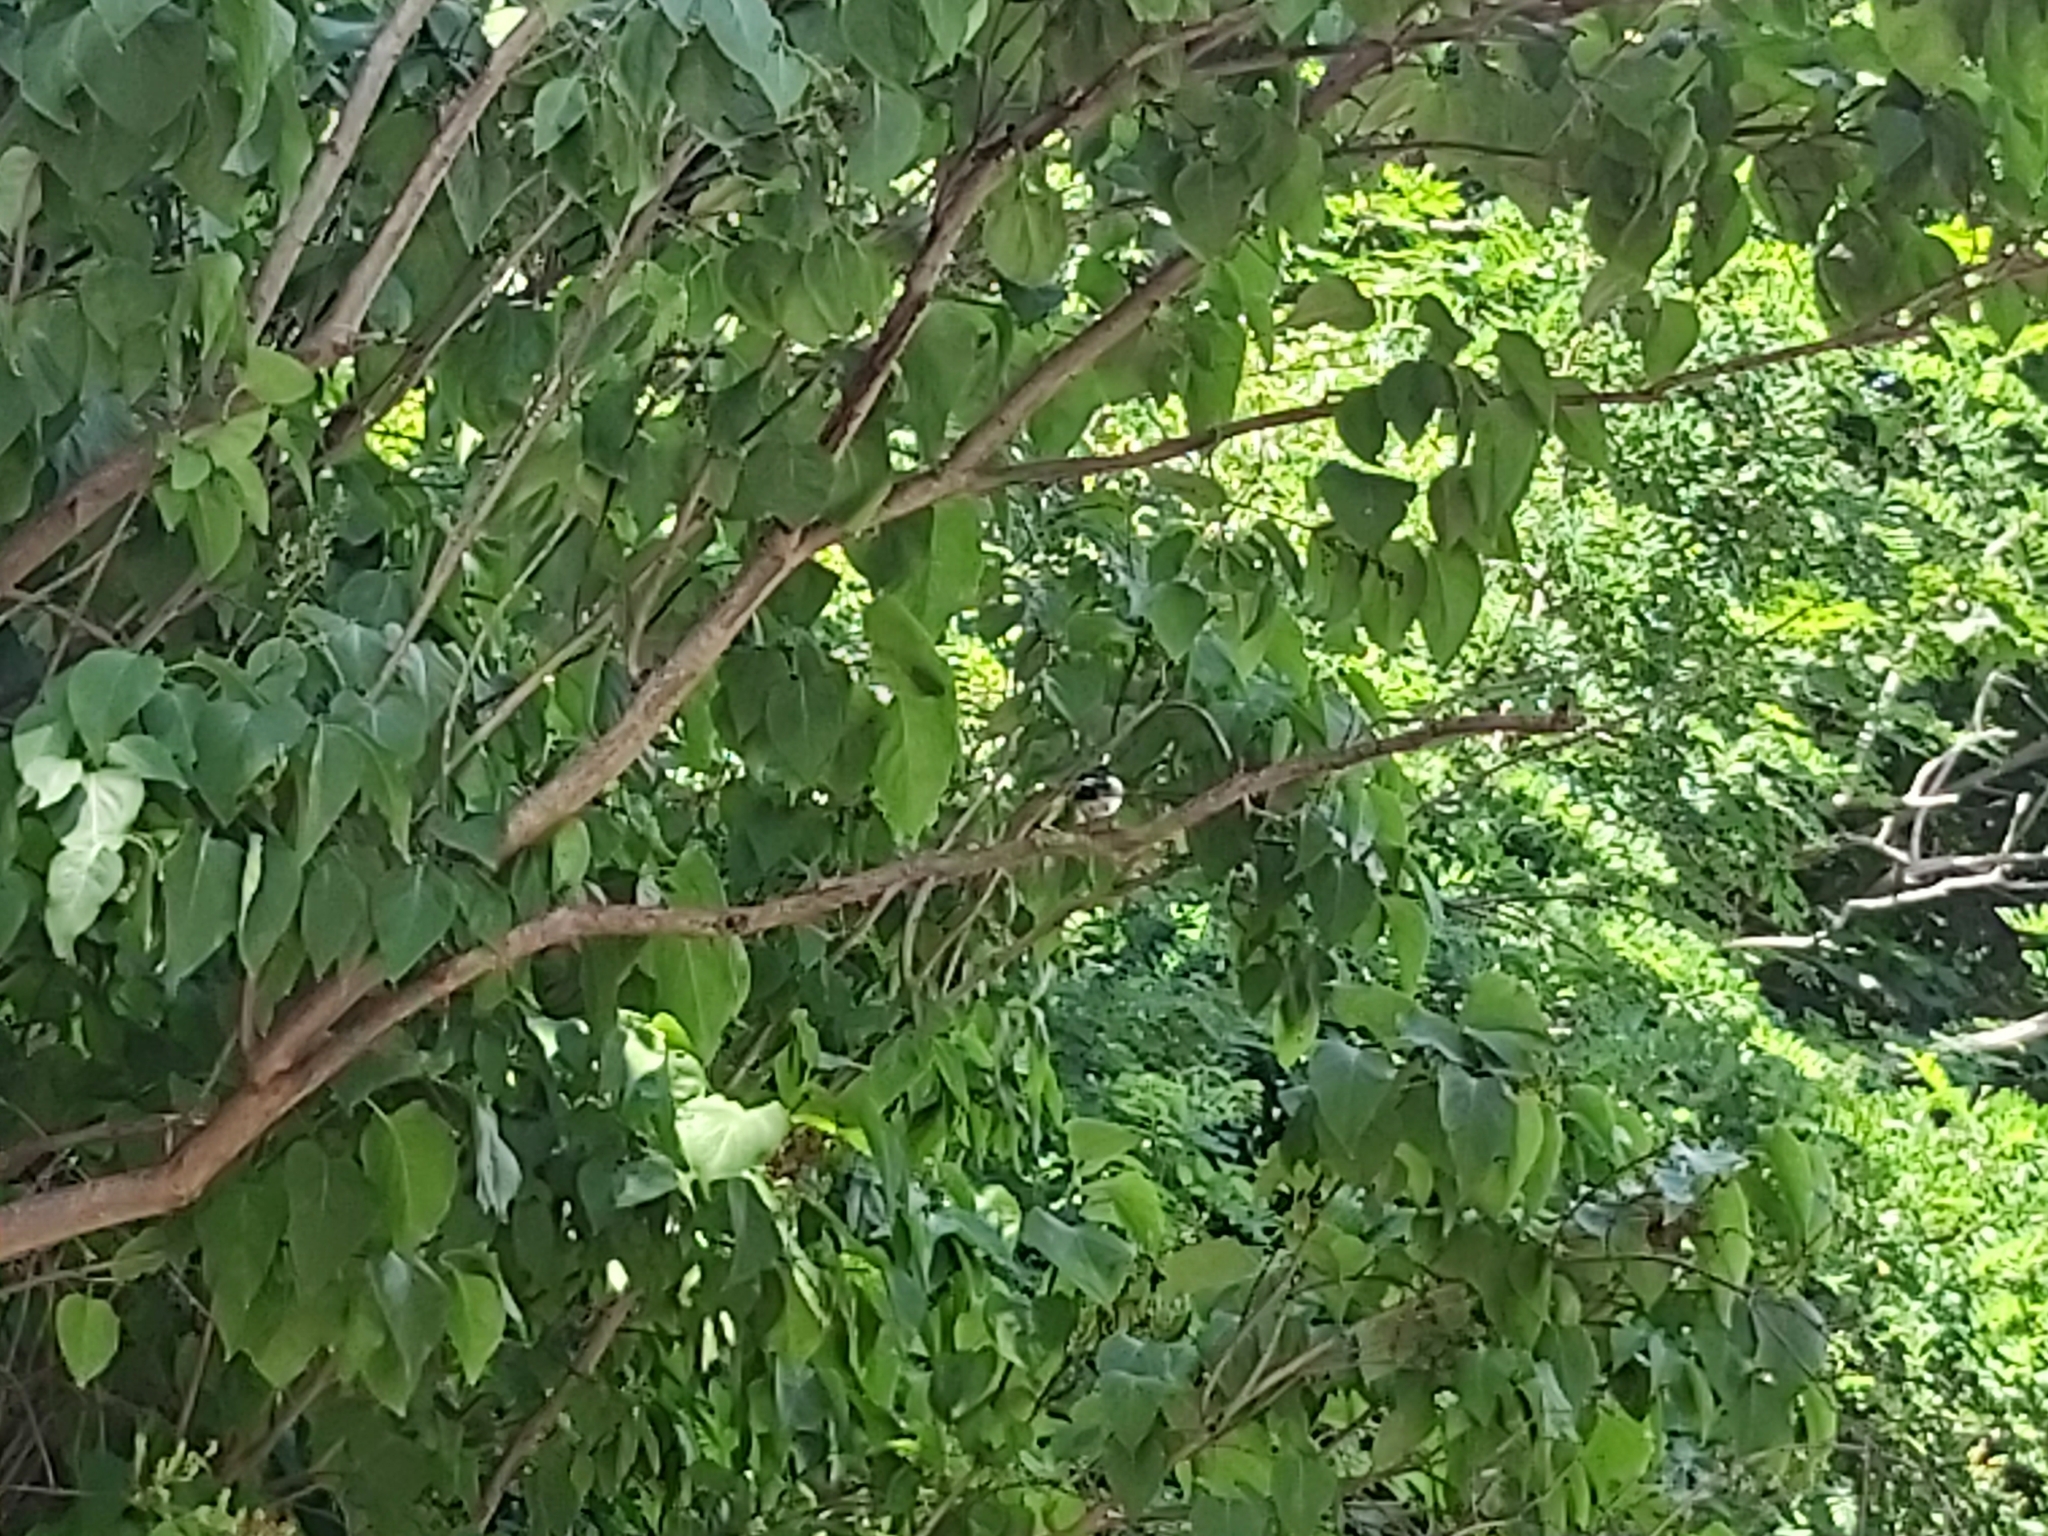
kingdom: Animalia
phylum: Chordata
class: Aves
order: Passeriformes
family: Muscicapidae
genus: Ficedula
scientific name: Ficedula hypoleuca
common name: European pied flycatcher
